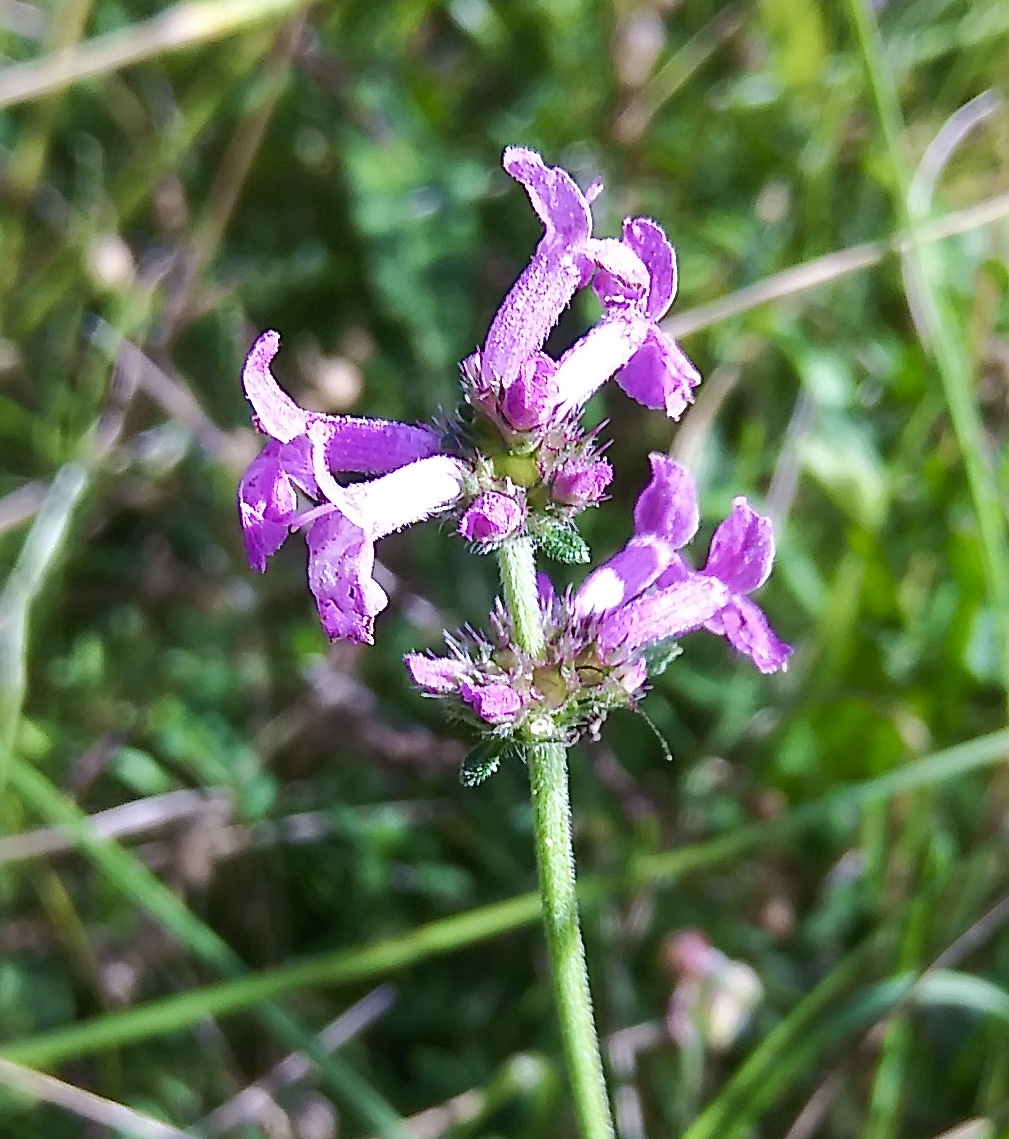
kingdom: Plantae
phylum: Tracheophyta
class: Magnoliopsida
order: Lamiales
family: Lamiaceae
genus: Betonica
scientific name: Betonica officinalis
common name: Bishop's-wort
